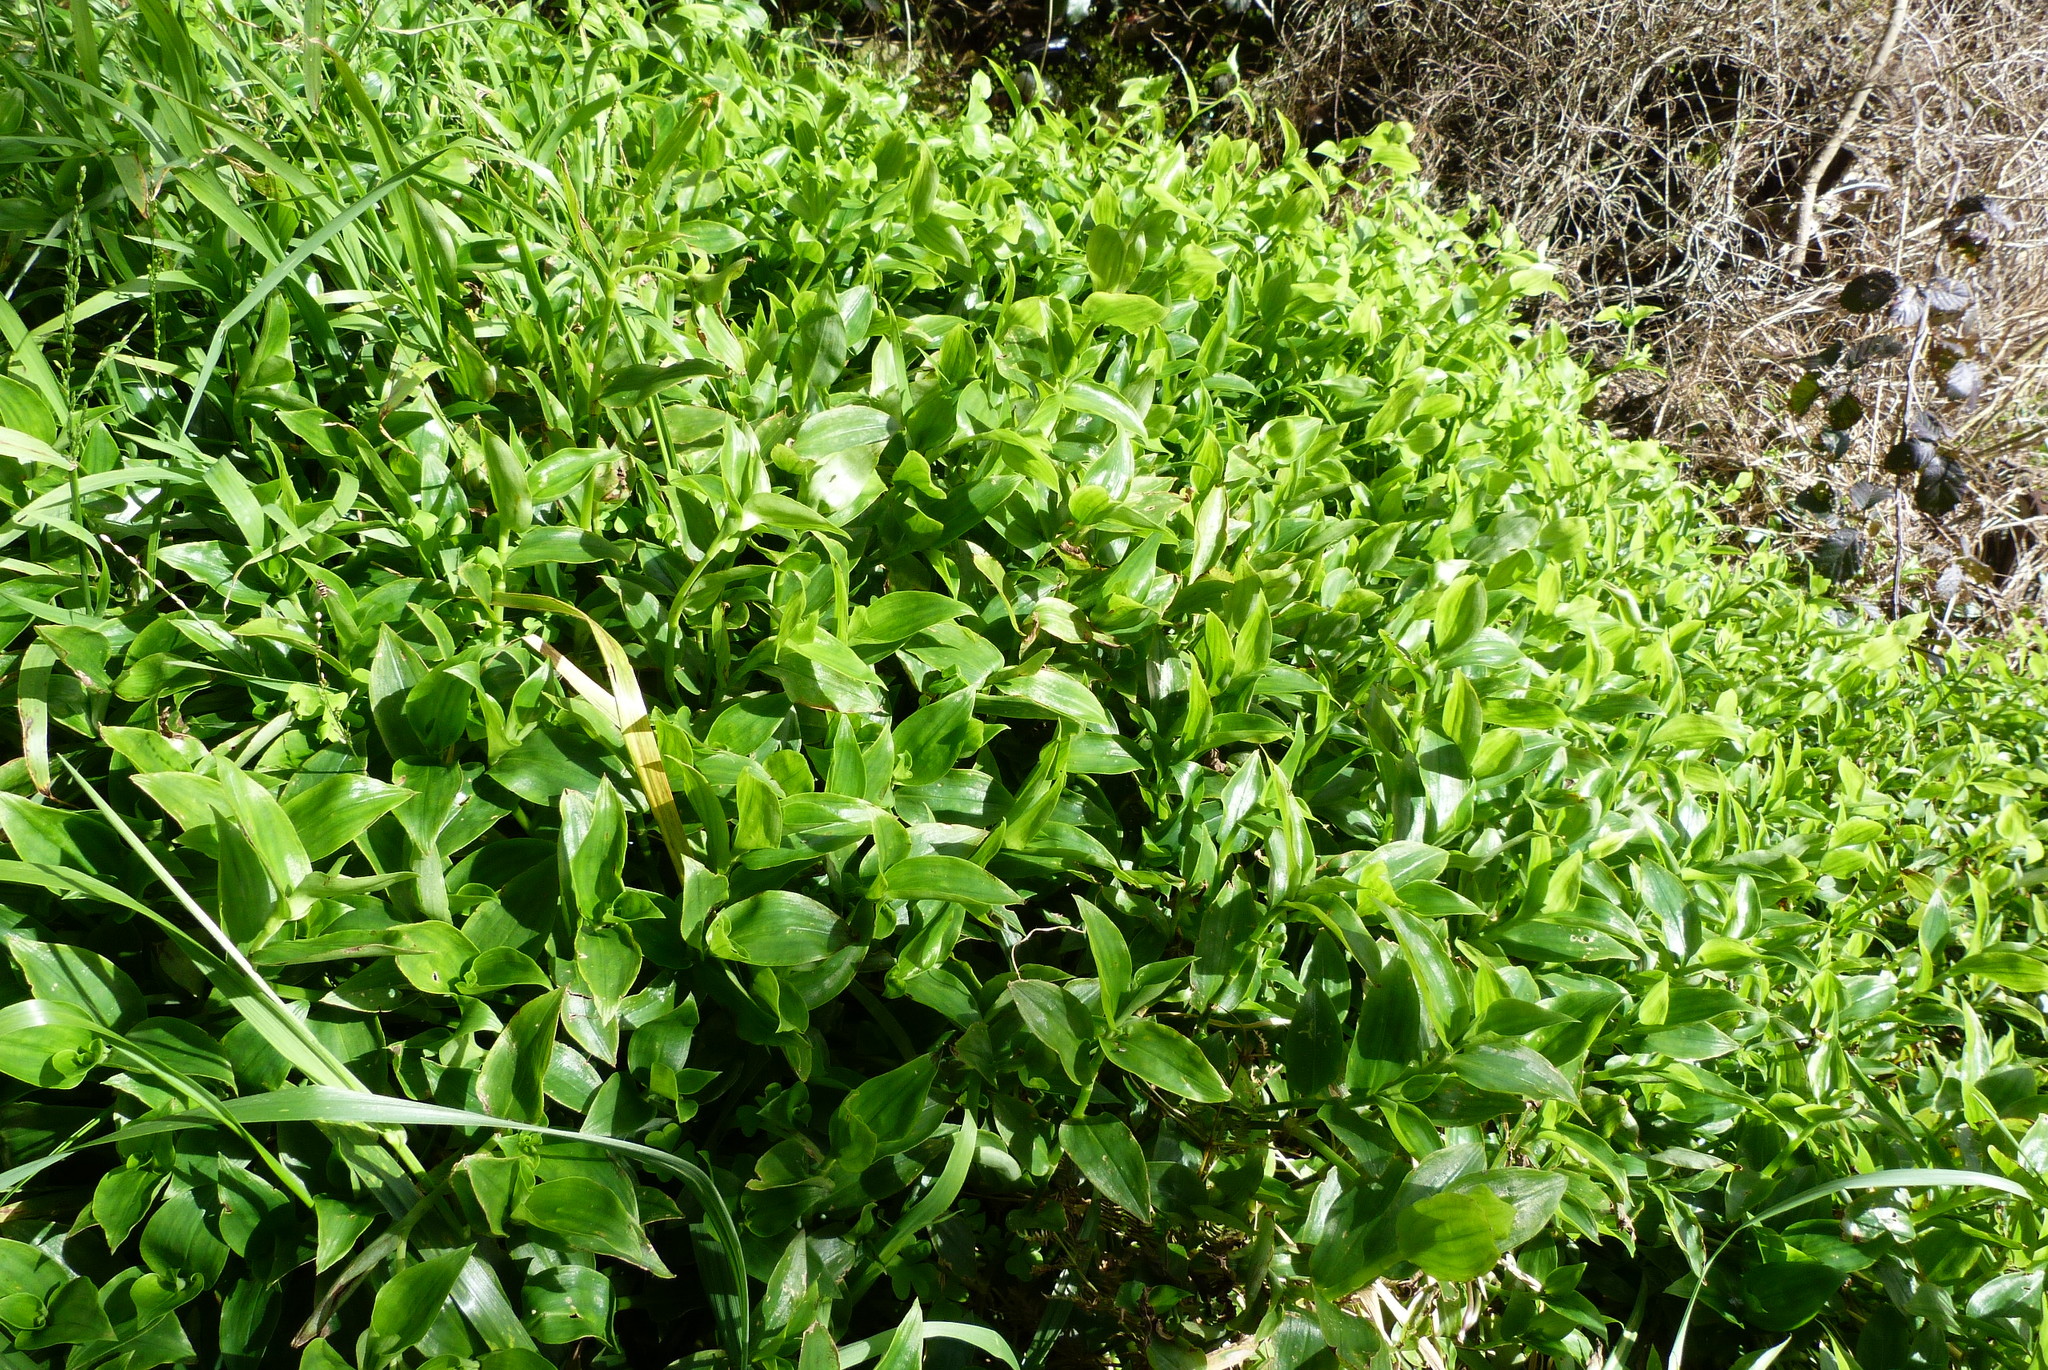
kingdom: Plantae
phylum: Tracheophyta
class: Liliopsida
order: Commelinales
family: Commelinaceae
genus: Tradescantia
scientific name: Tradescantia fluminensis
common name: Wandering-jew
